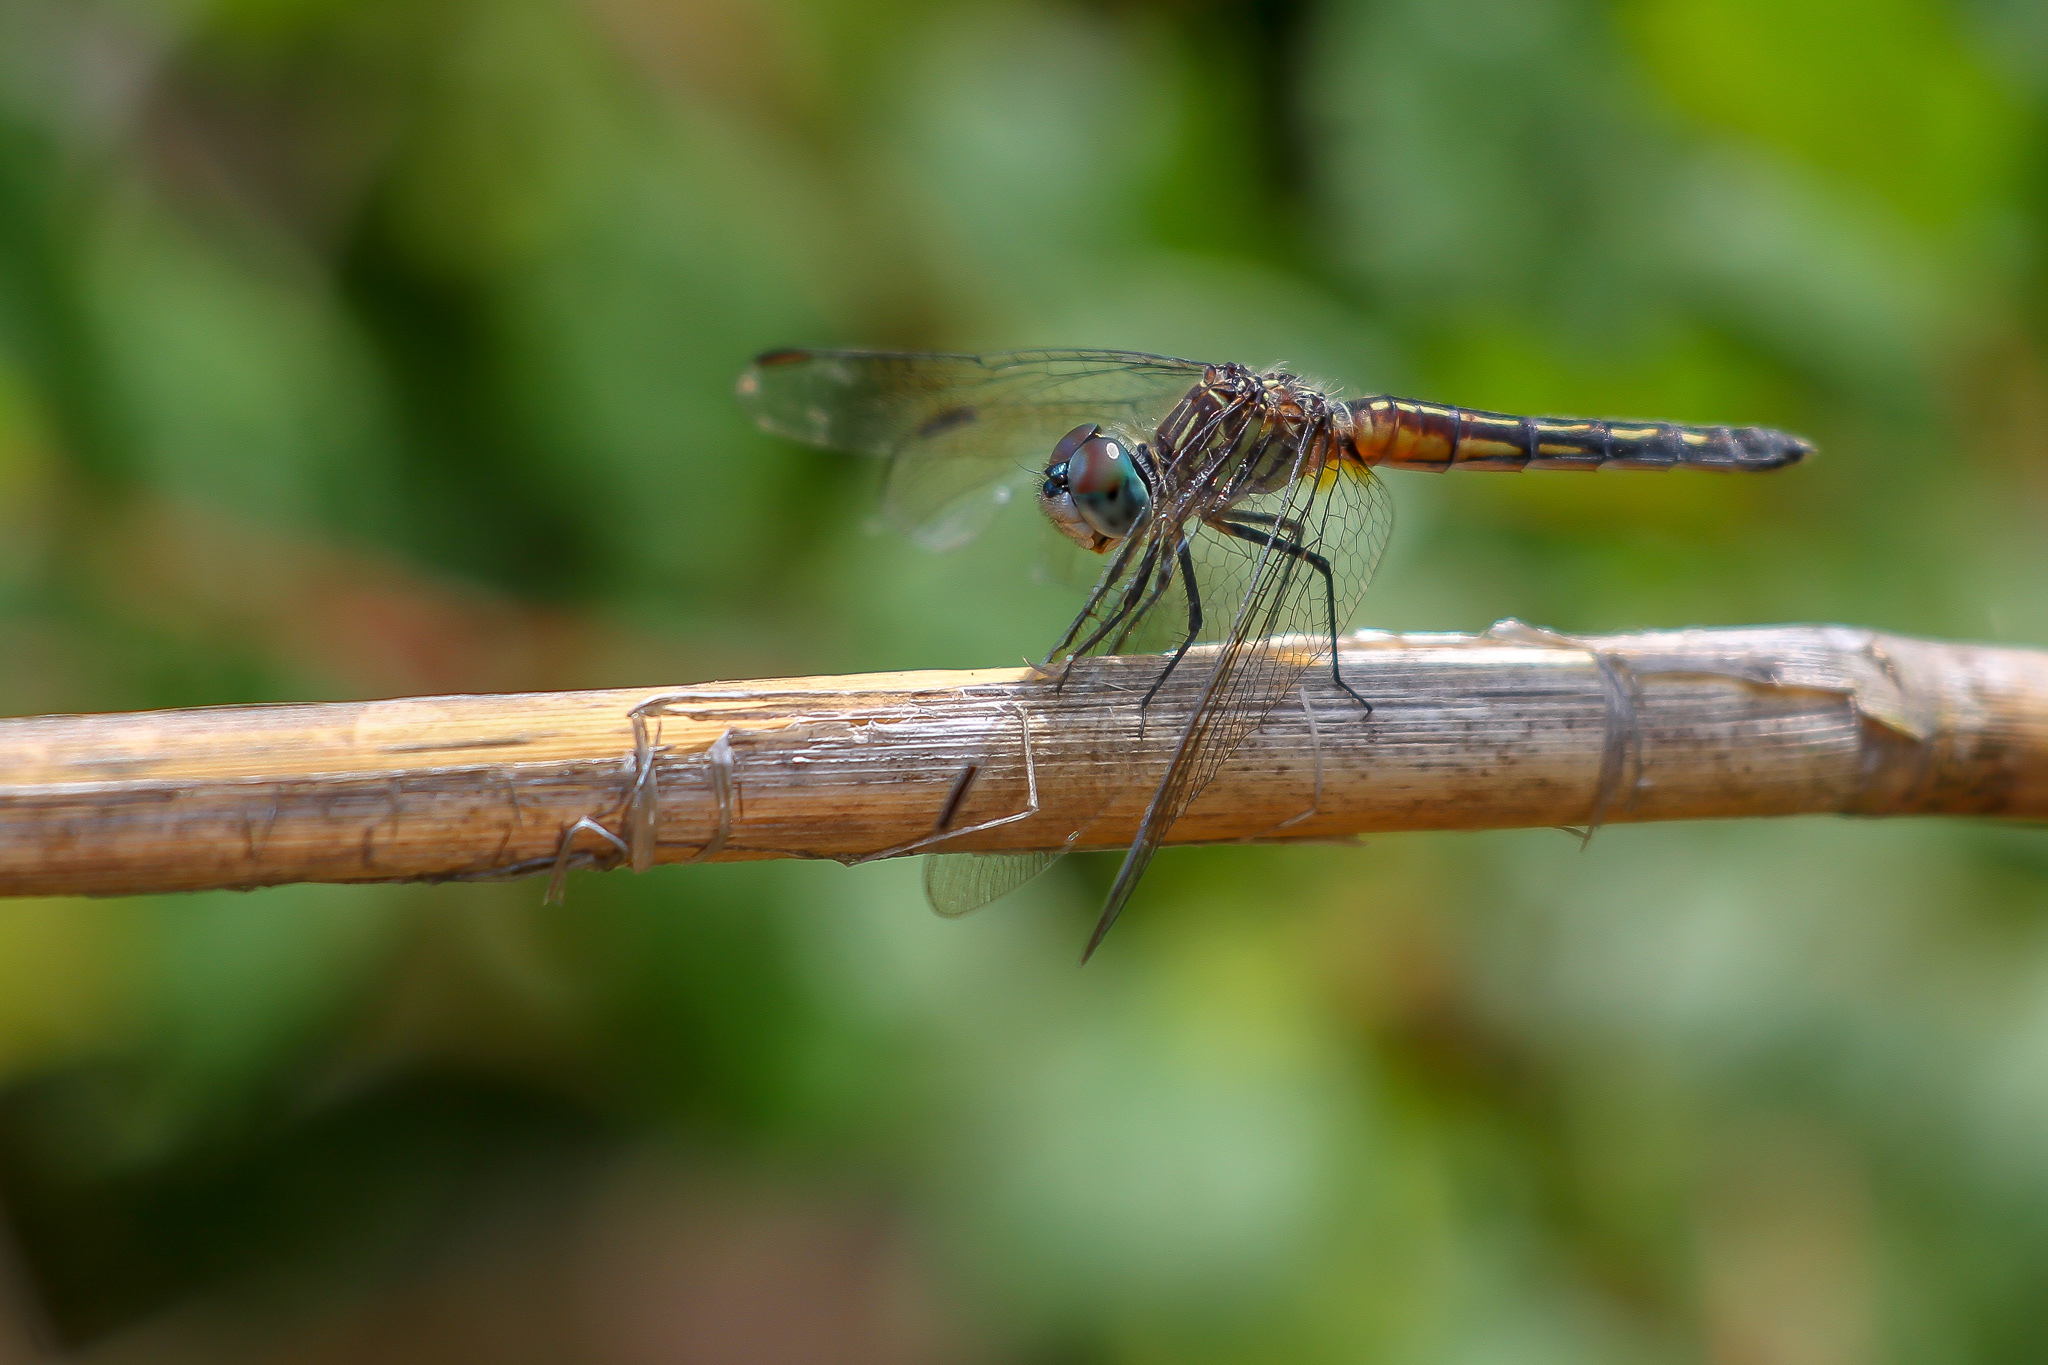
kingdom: Animalia
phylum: Arthropoda
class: Insecta
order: Odonata
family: Libellulidae
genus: Pachydiplax
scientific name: Pachydiplax longipennis
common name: Blue dasher
